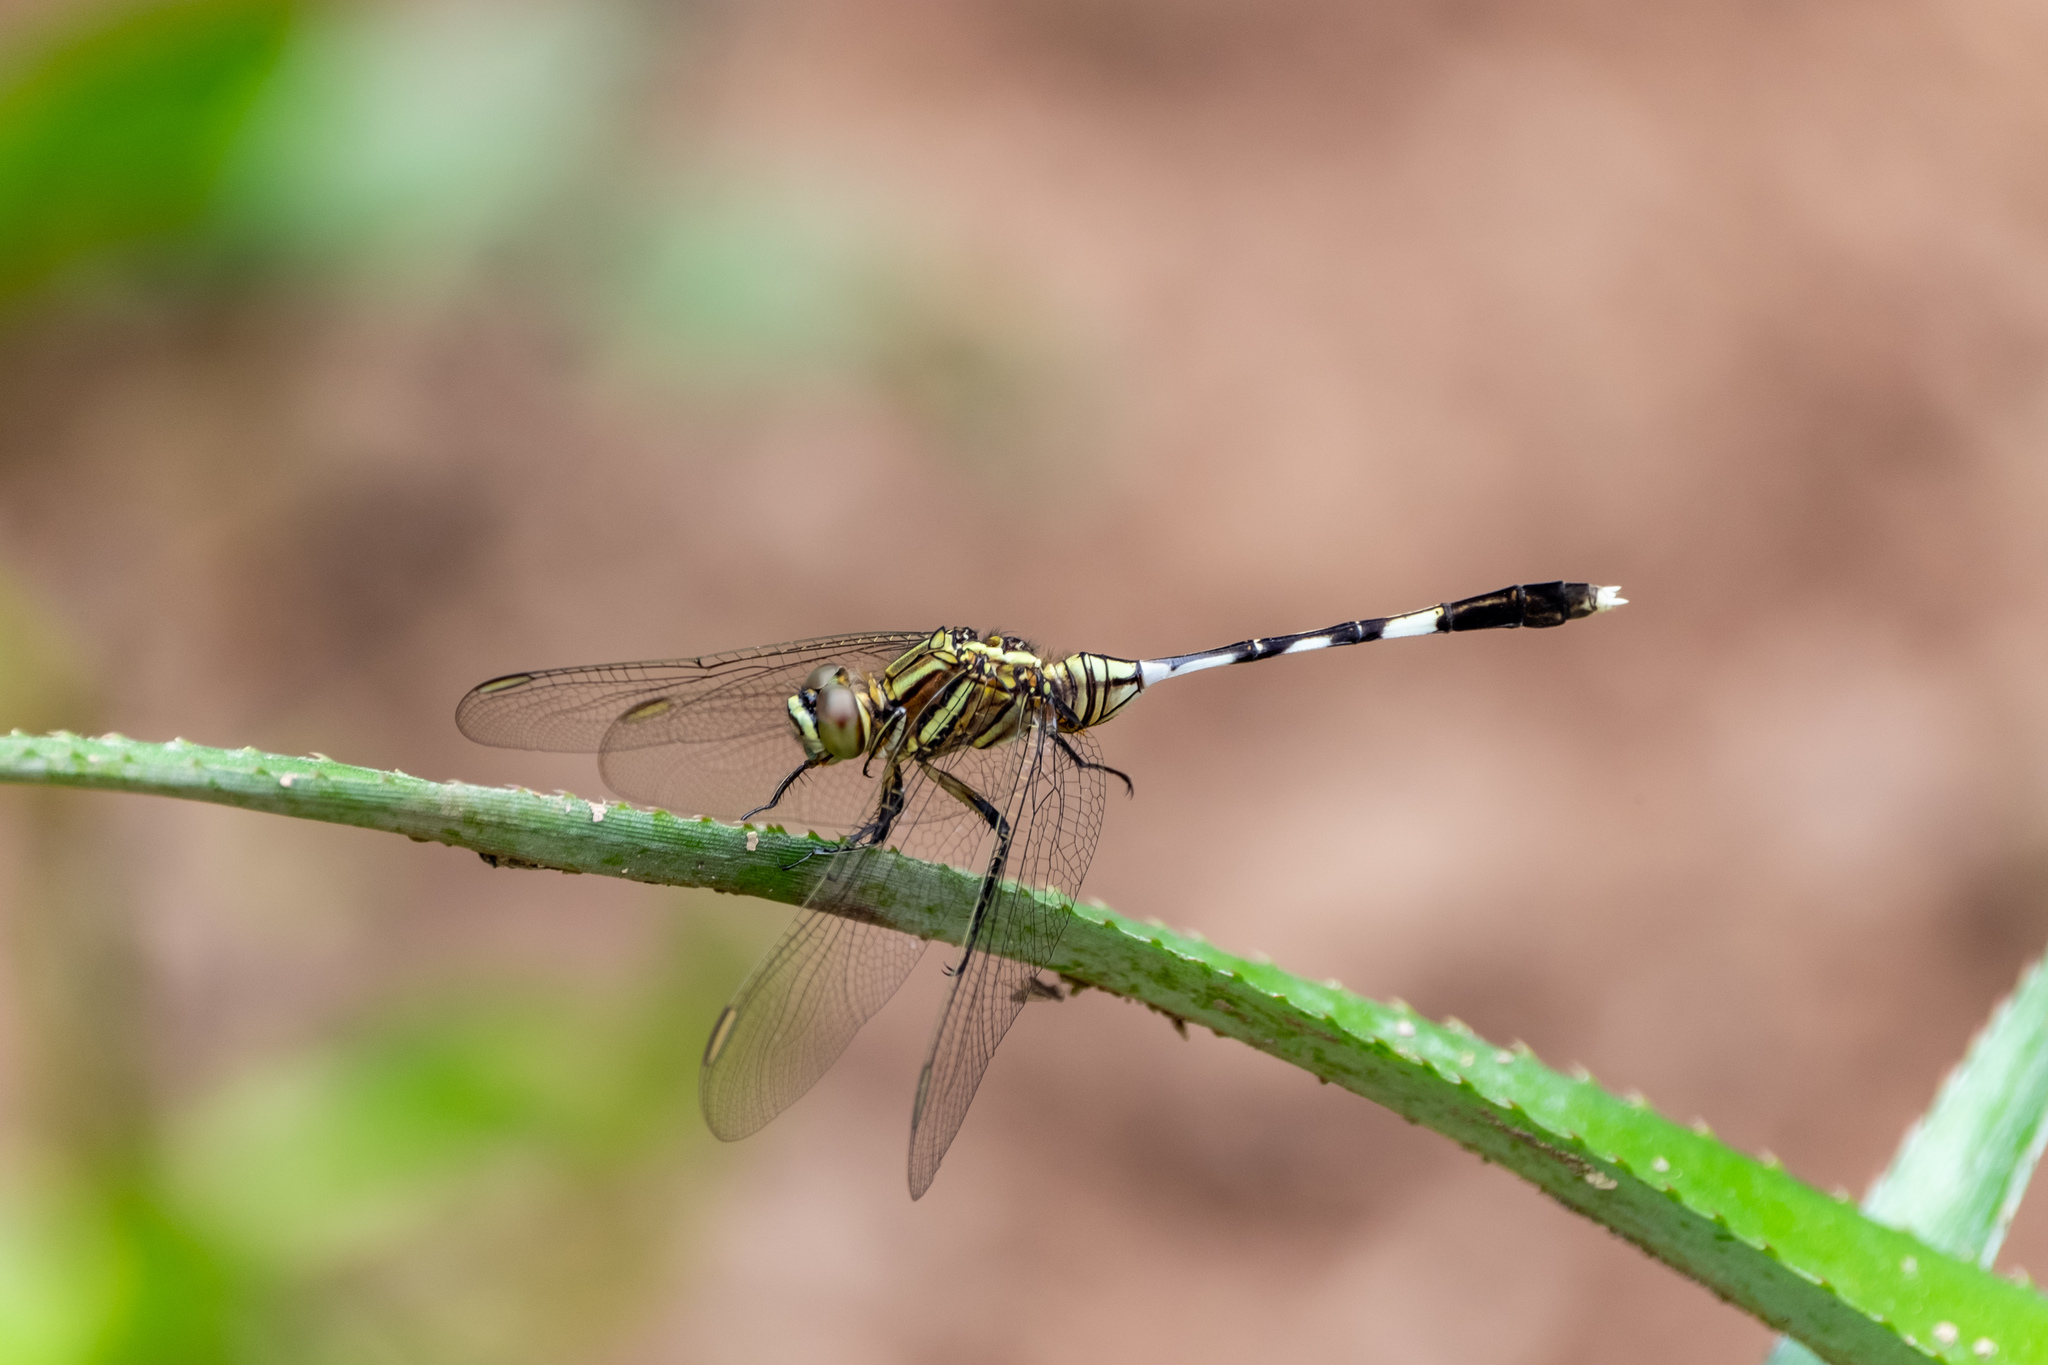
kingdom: Animalia
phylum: Arthropoda
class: Insecta
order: Odonata
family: Libellulidae
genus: Orthetrum
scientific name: Orthetrum sabina
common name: Slender skimmer
